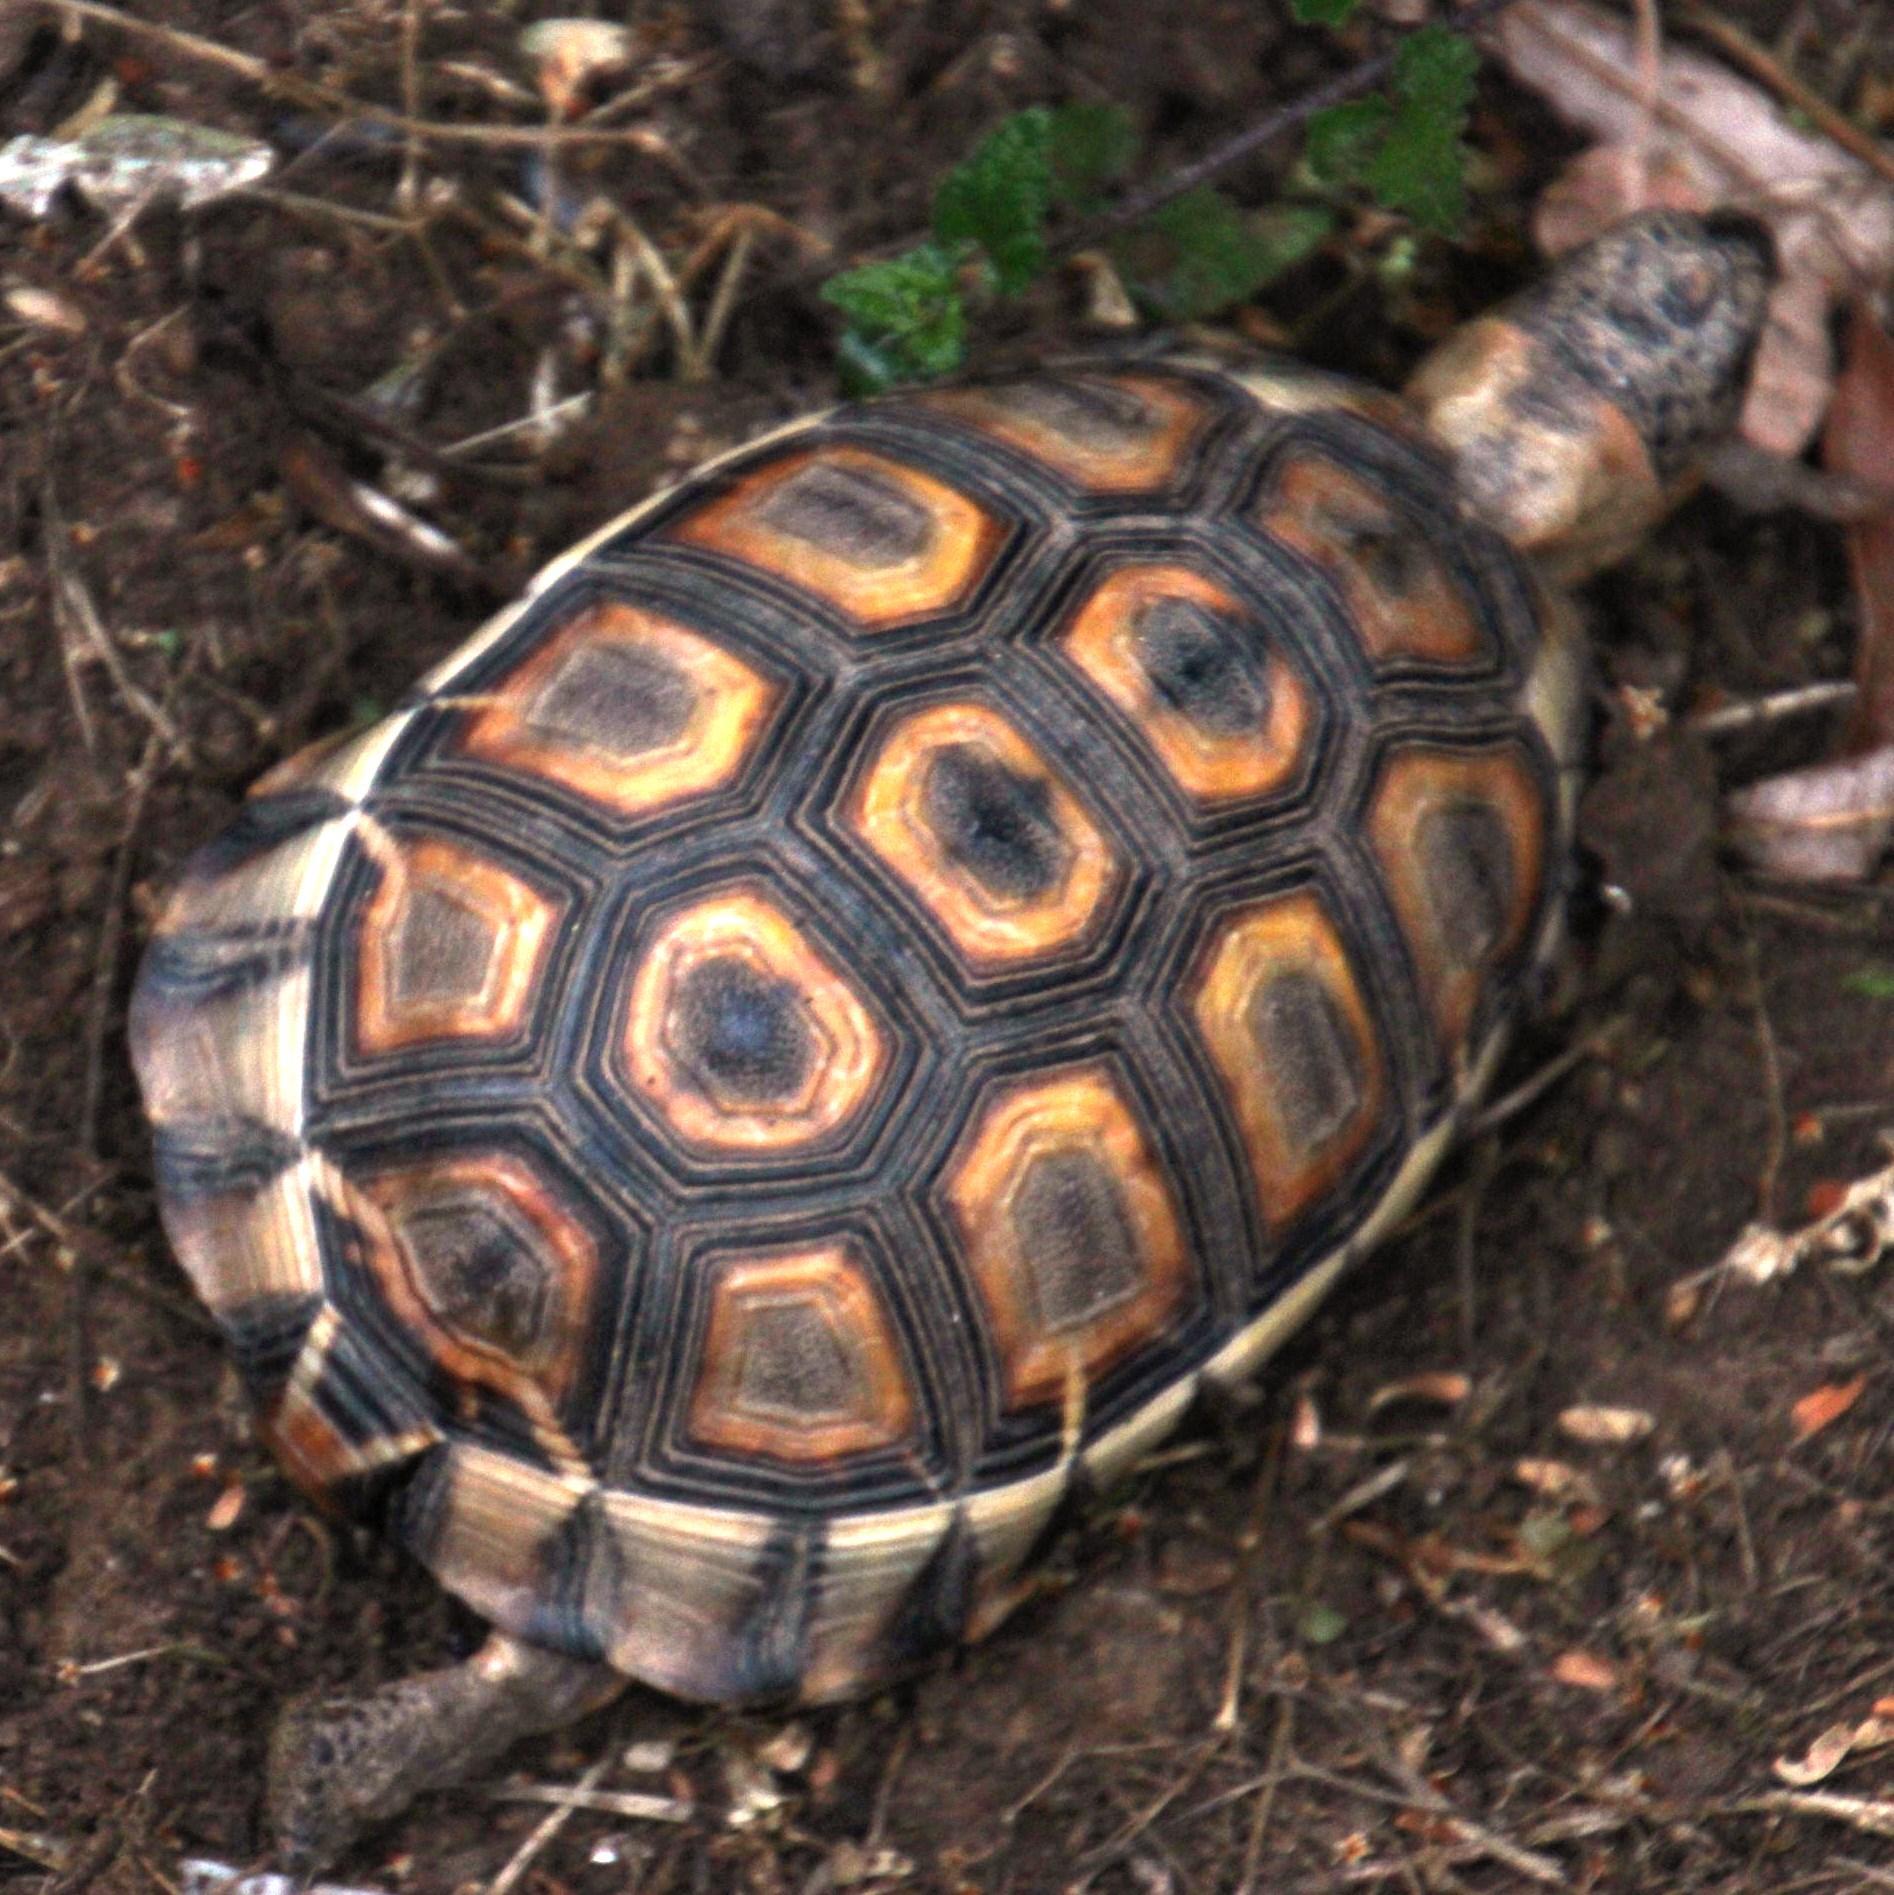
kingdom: Animalia
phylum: Chordata
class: Testudines
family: Testudinidae
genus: Chersina
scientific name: Chersina angulata
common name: South african bowsprit tortoise
